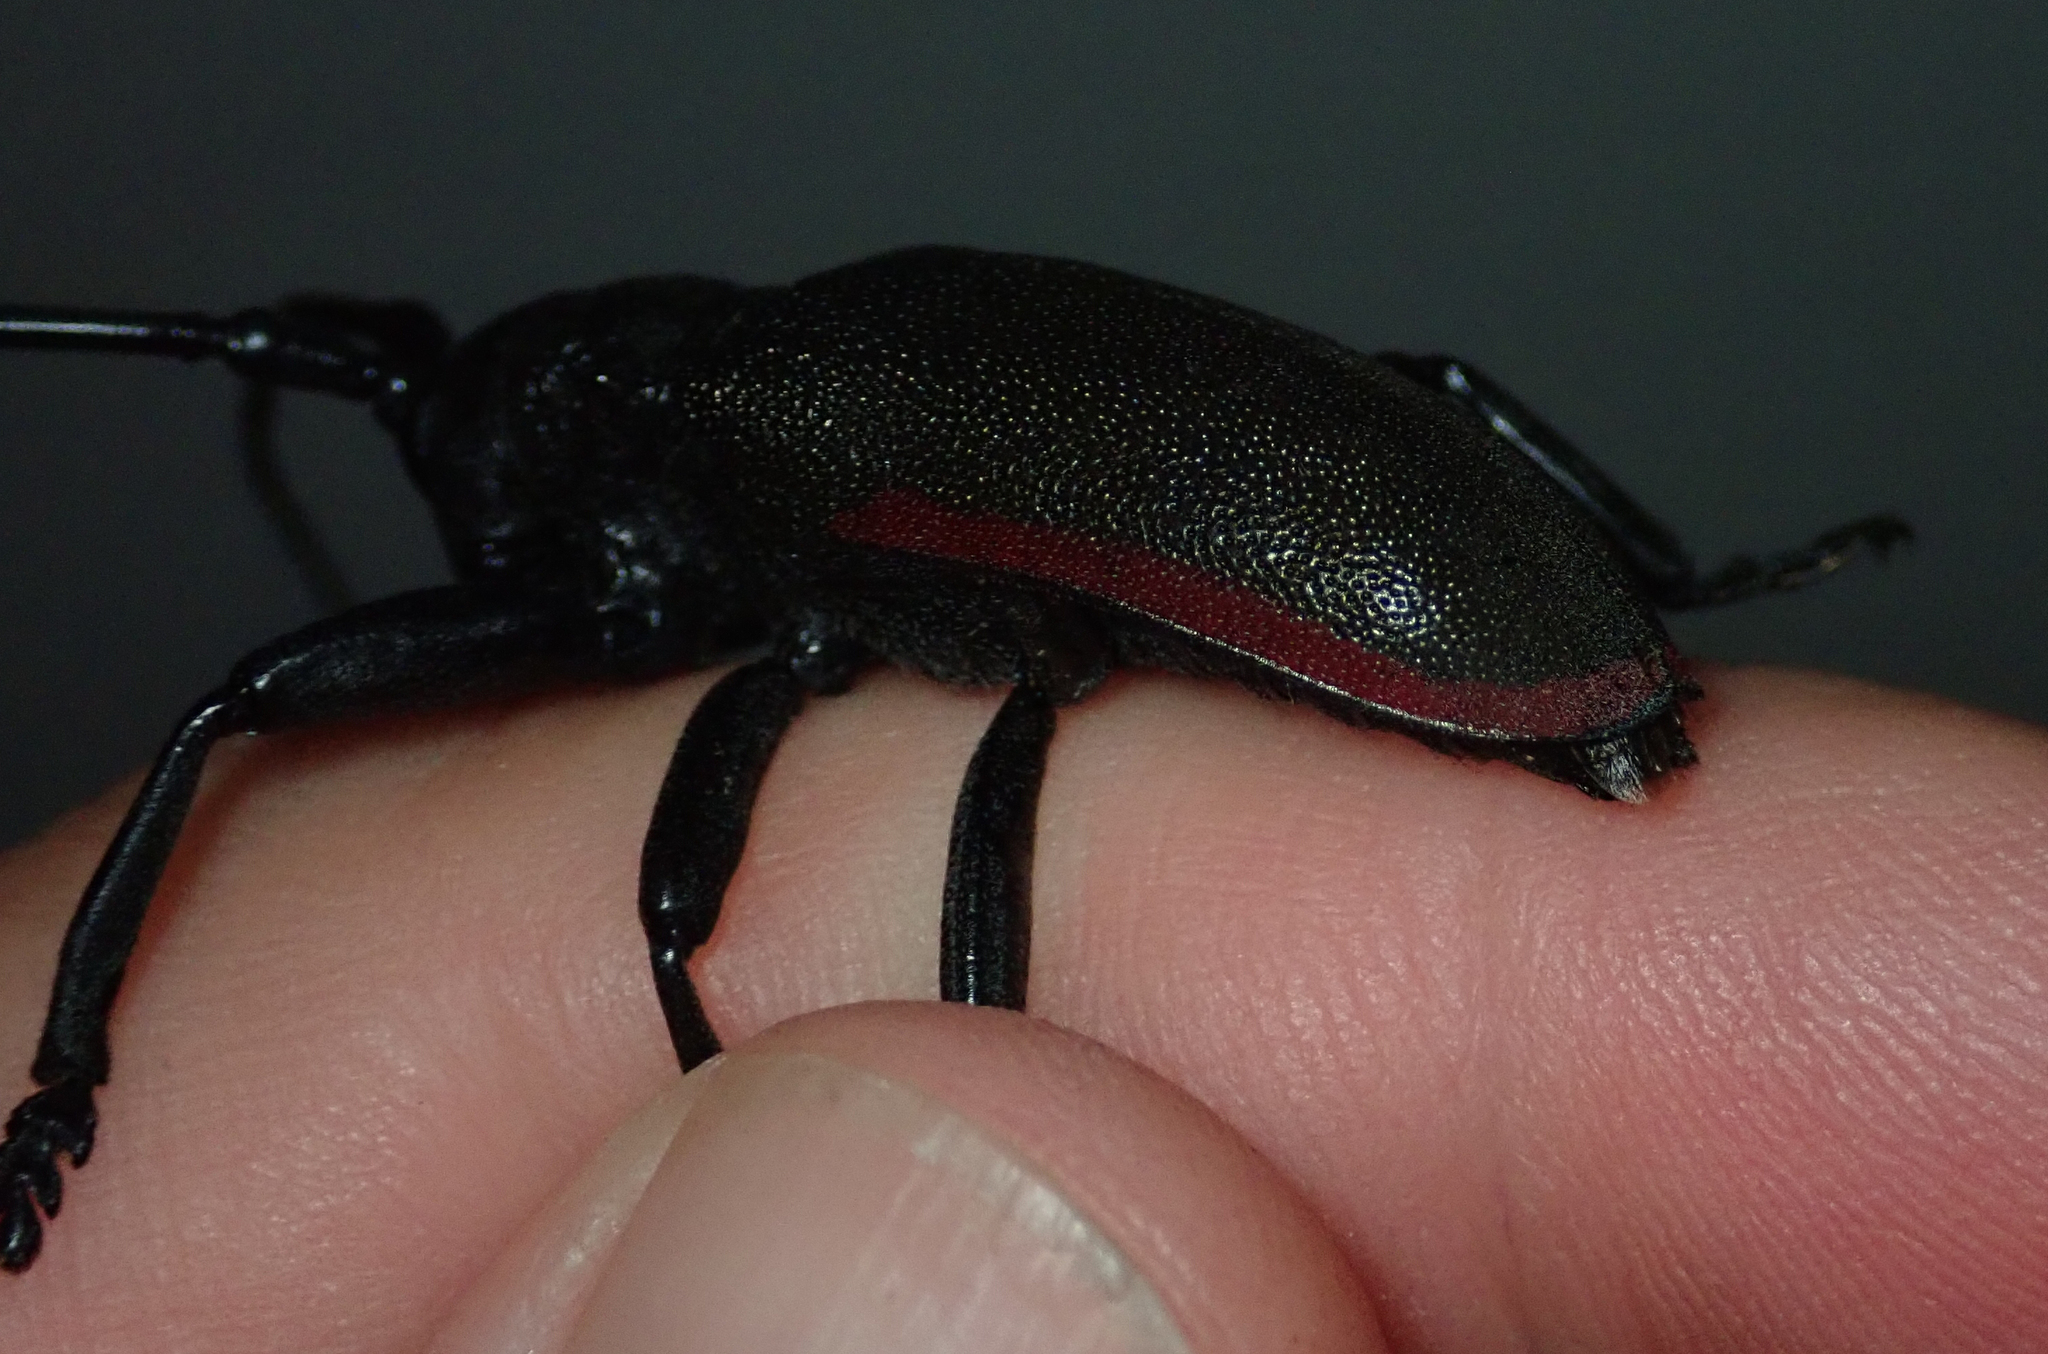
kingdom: Animalia
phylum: Arthropoda
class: Insecta
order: Coleoptera
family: Cerambycidae
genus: Ceroplesis
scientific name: Ceroplesis ferrugator
